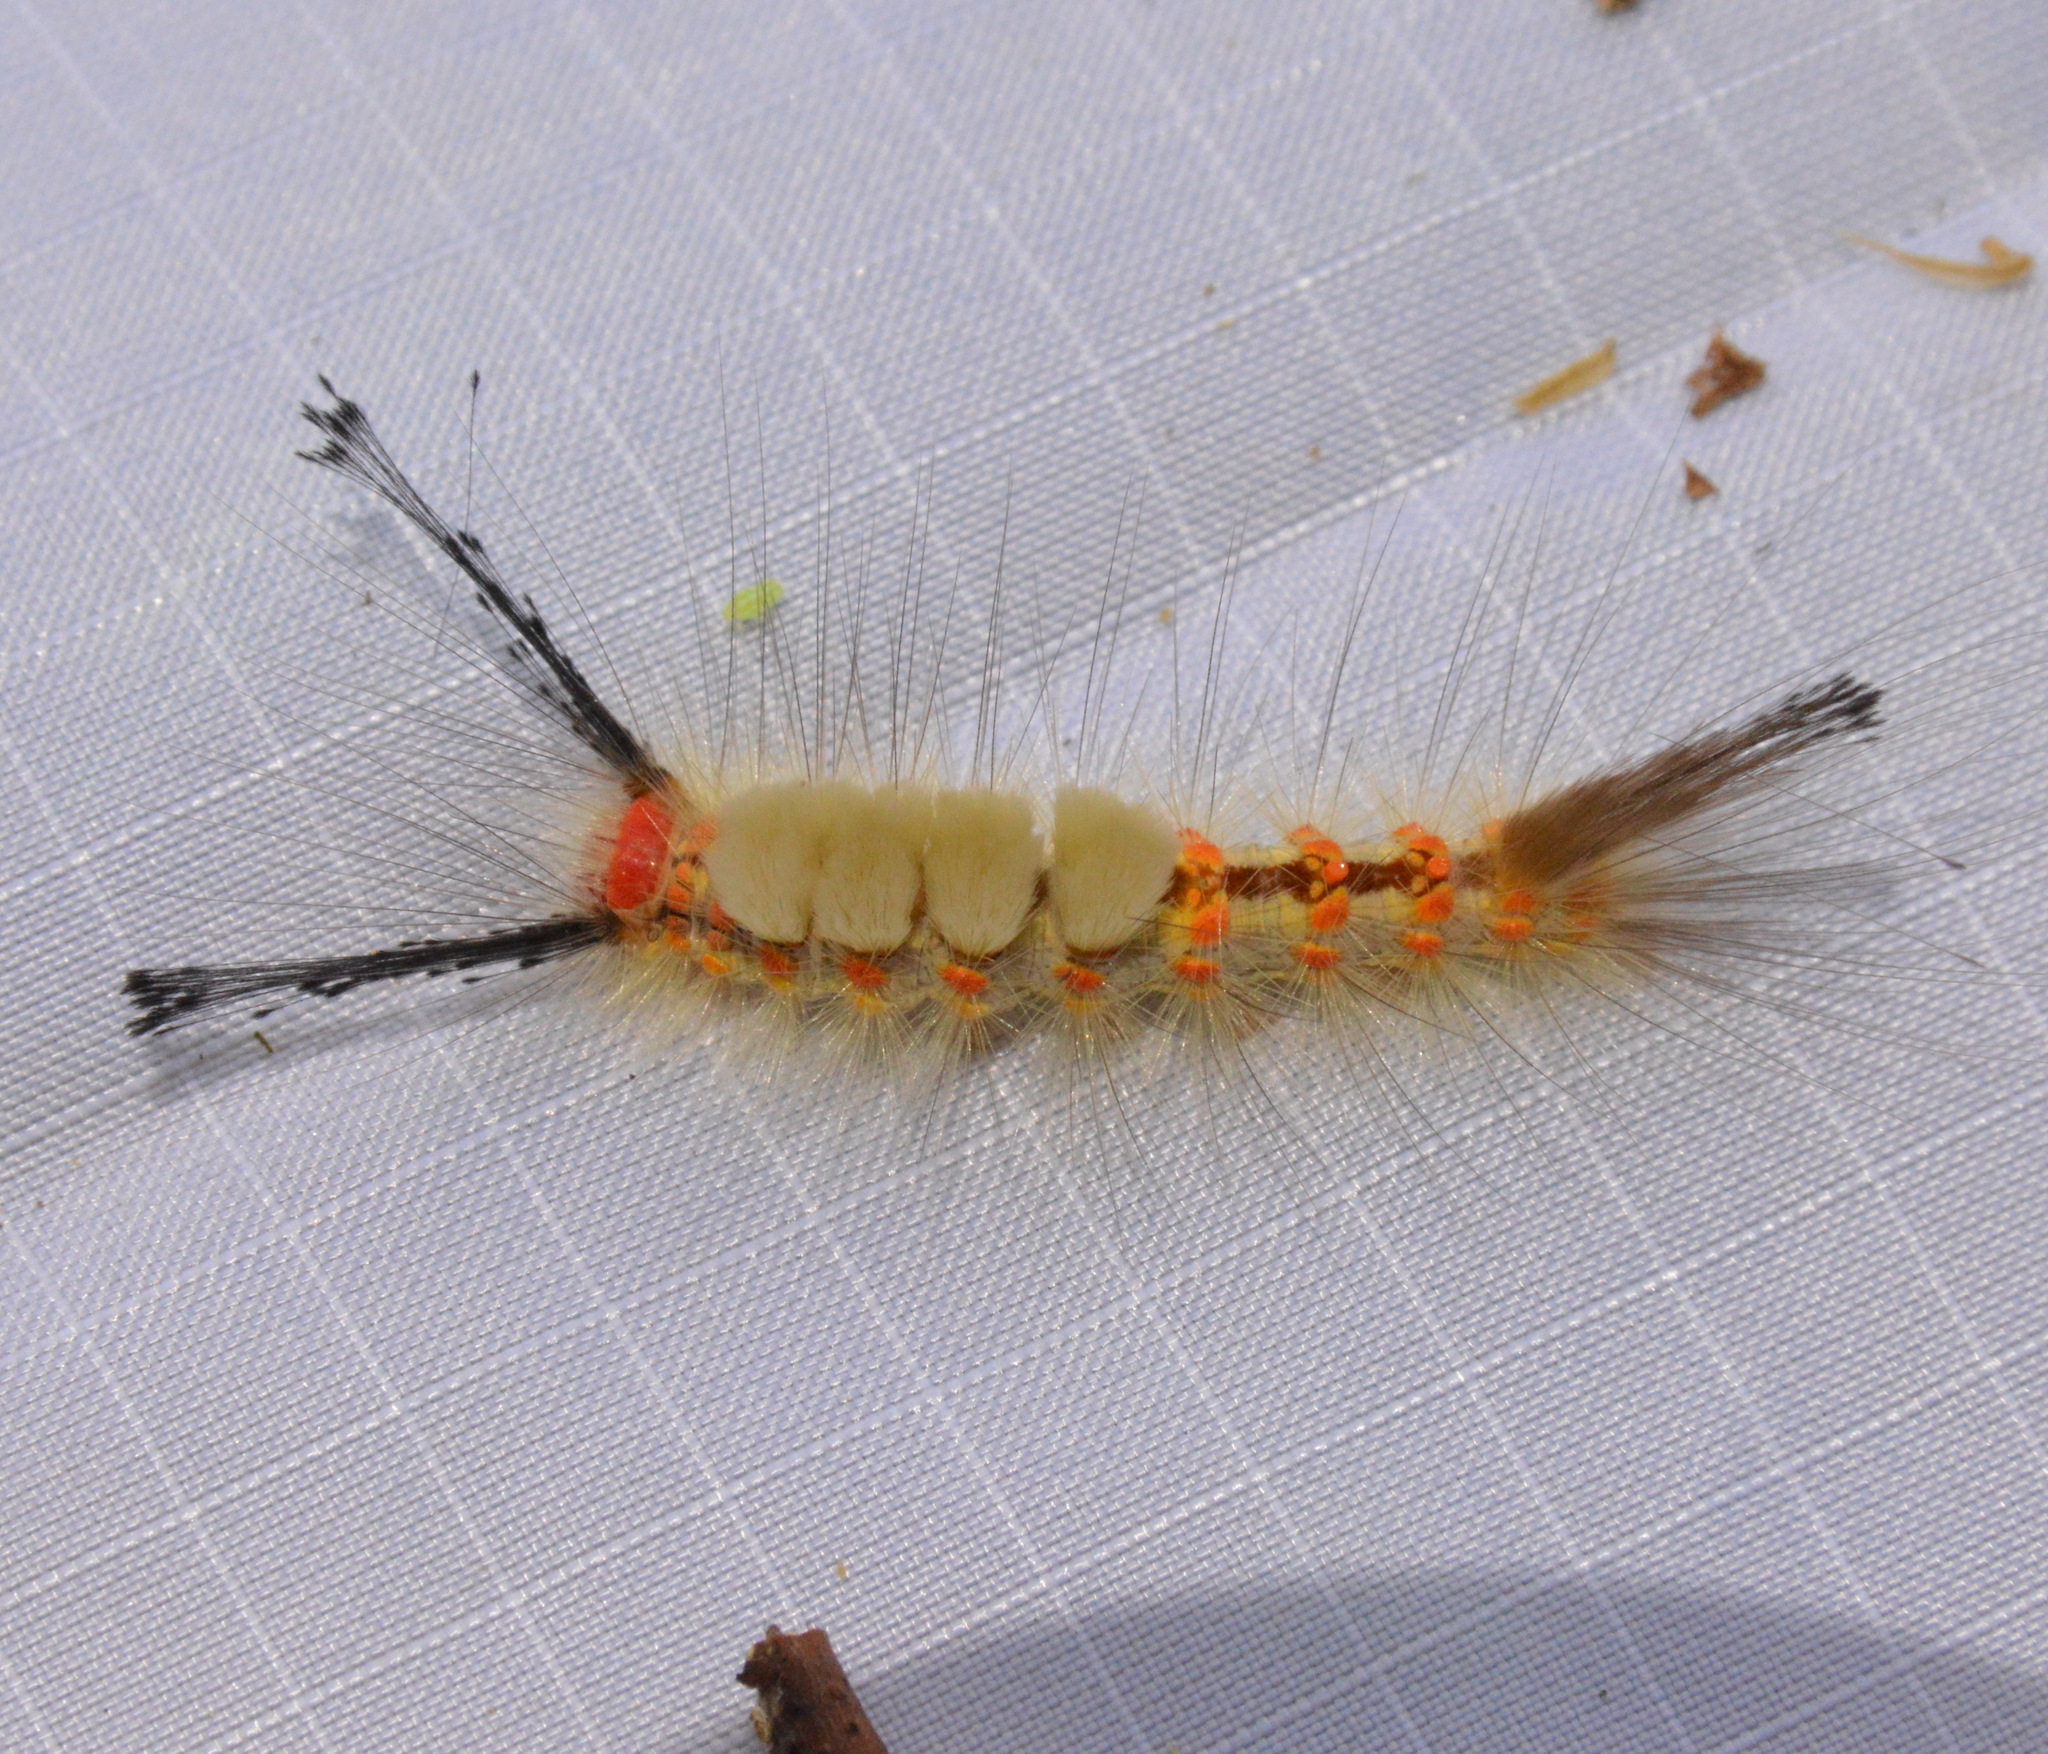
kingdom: Animalia
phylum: Arthropoda
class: Insecta
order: Lepidoptera
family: Erebidae
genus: Orgyia
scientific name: Orgyia detrita
